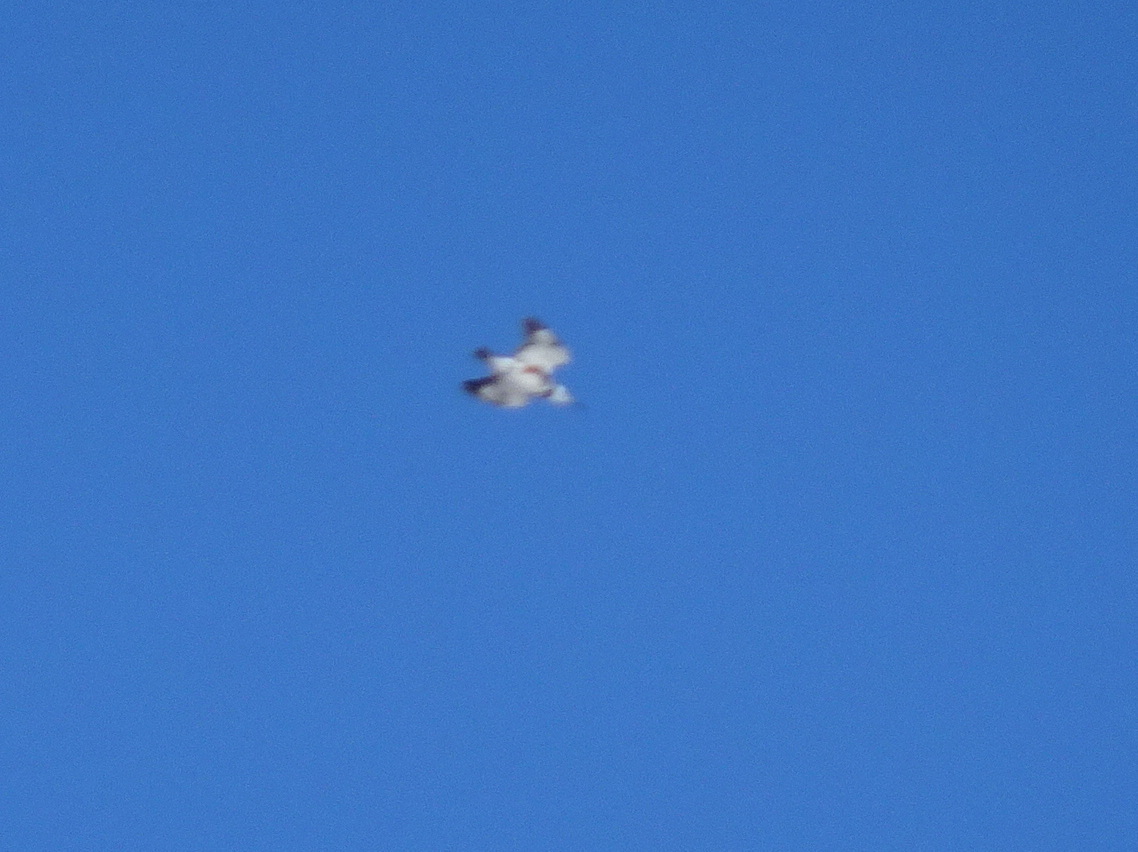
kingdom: Animalia
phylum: Chordata
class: Aves
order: Coraciiformes
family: Alcedinidae
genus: Megaceryle
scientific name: Megaceryle alcyon
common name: Belted kingfisher
